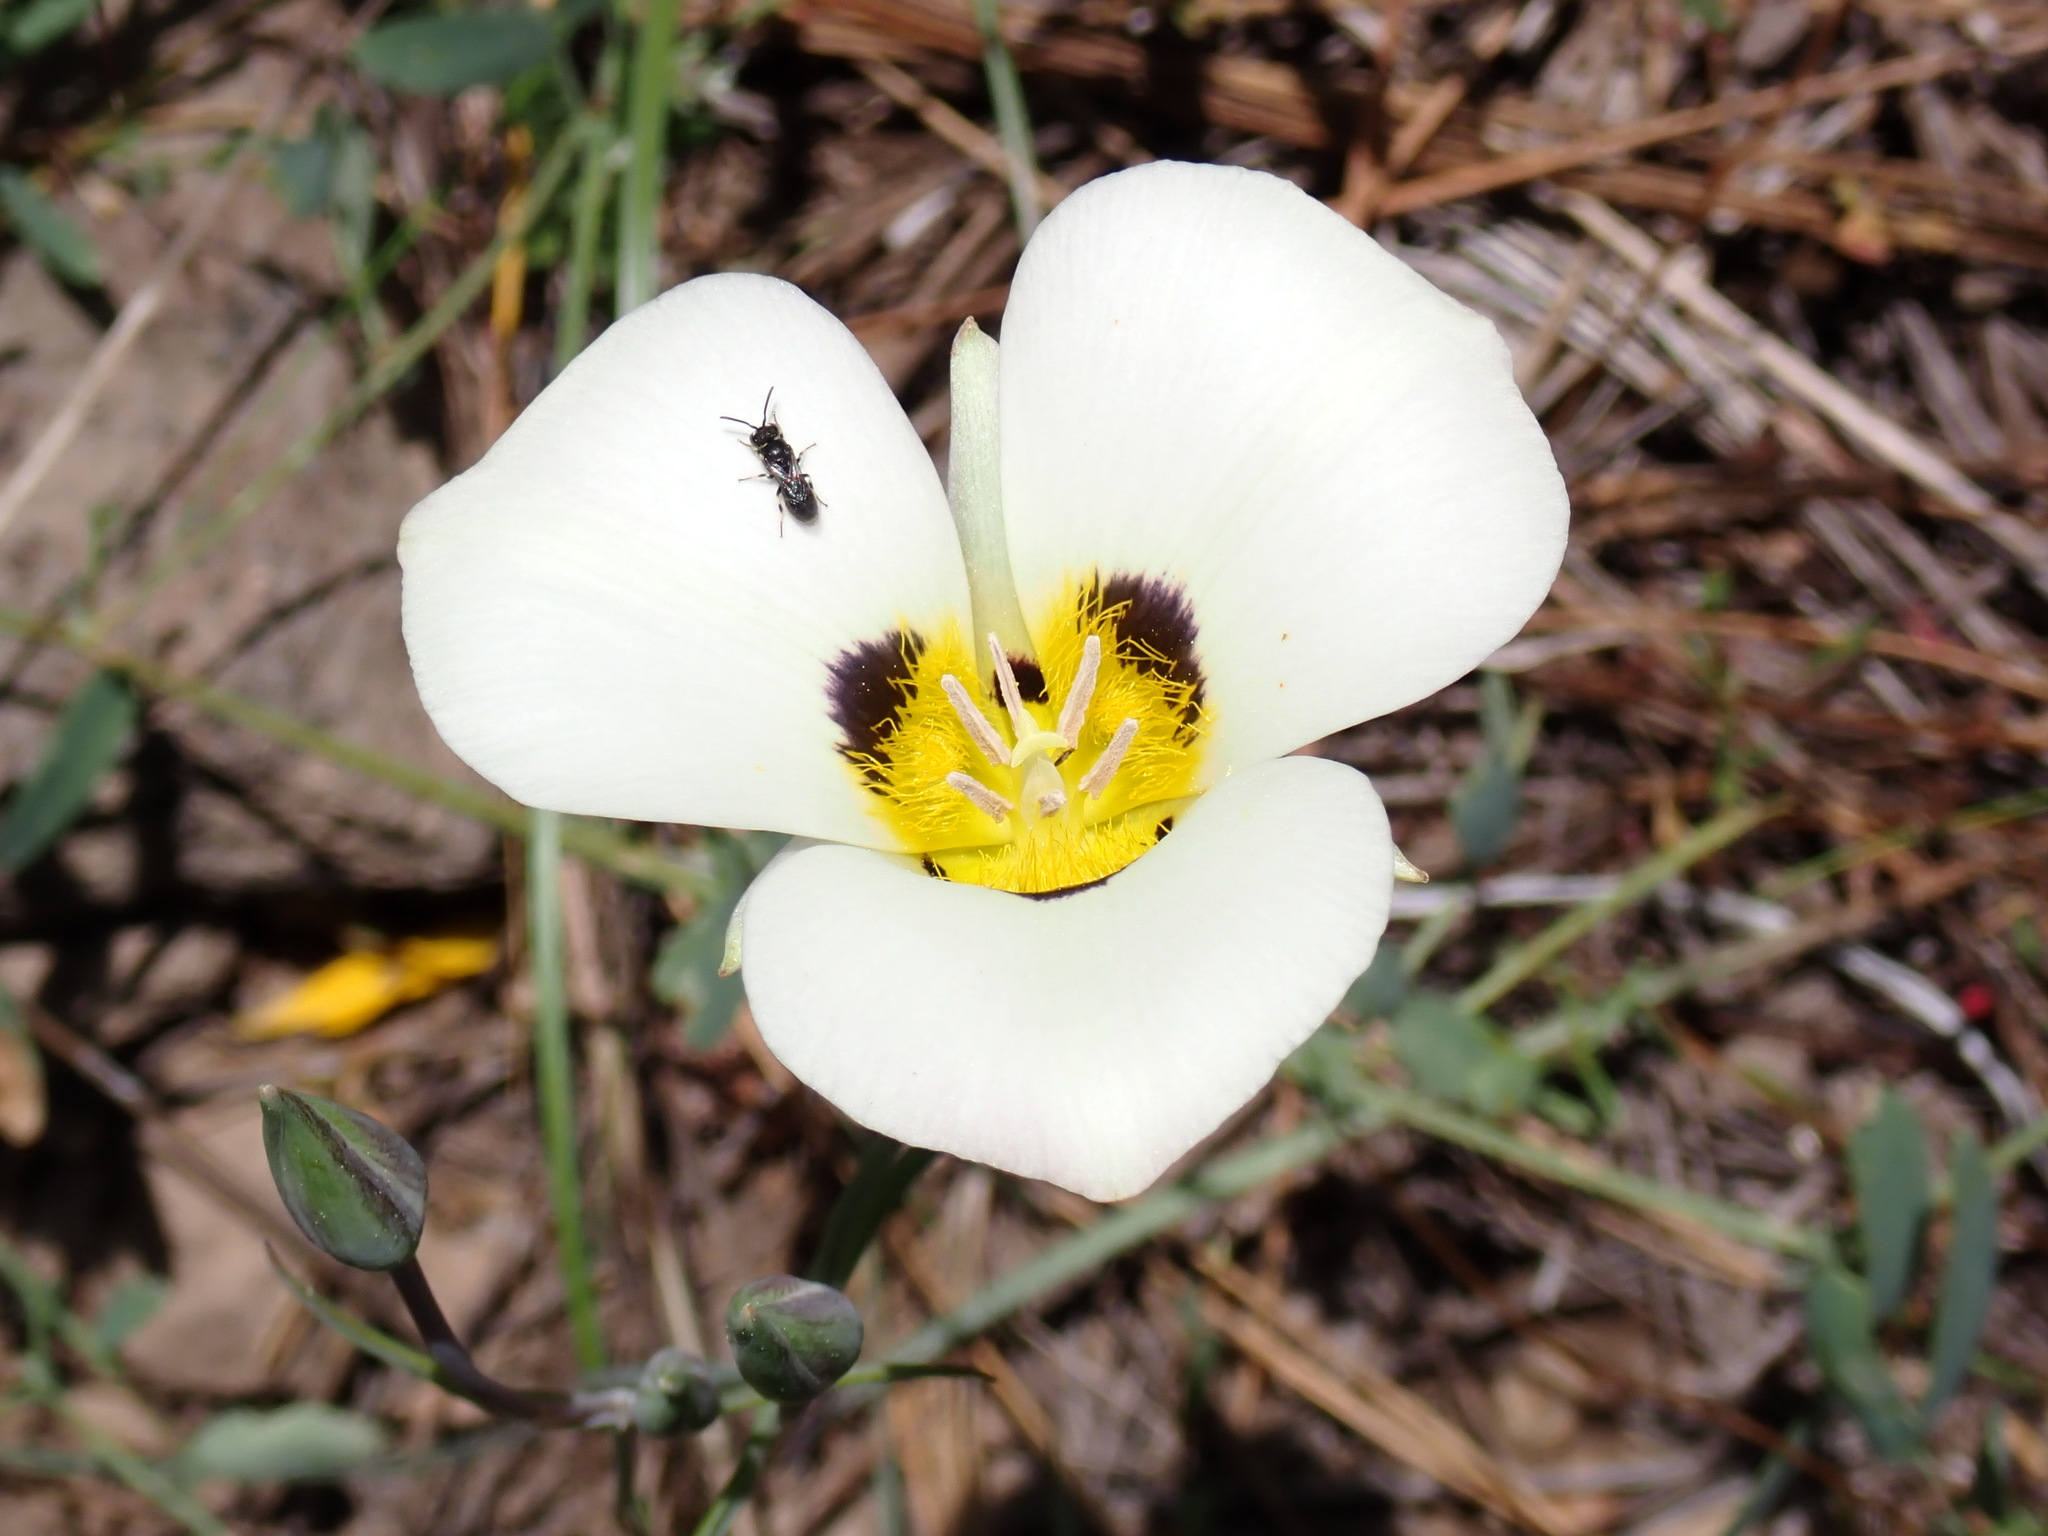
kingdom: Plantae
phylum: Tracheophyta
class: Liliopsida
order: Liliales
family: Liliaceae
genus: Calochortus
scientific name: Calochortus leichtlinii
